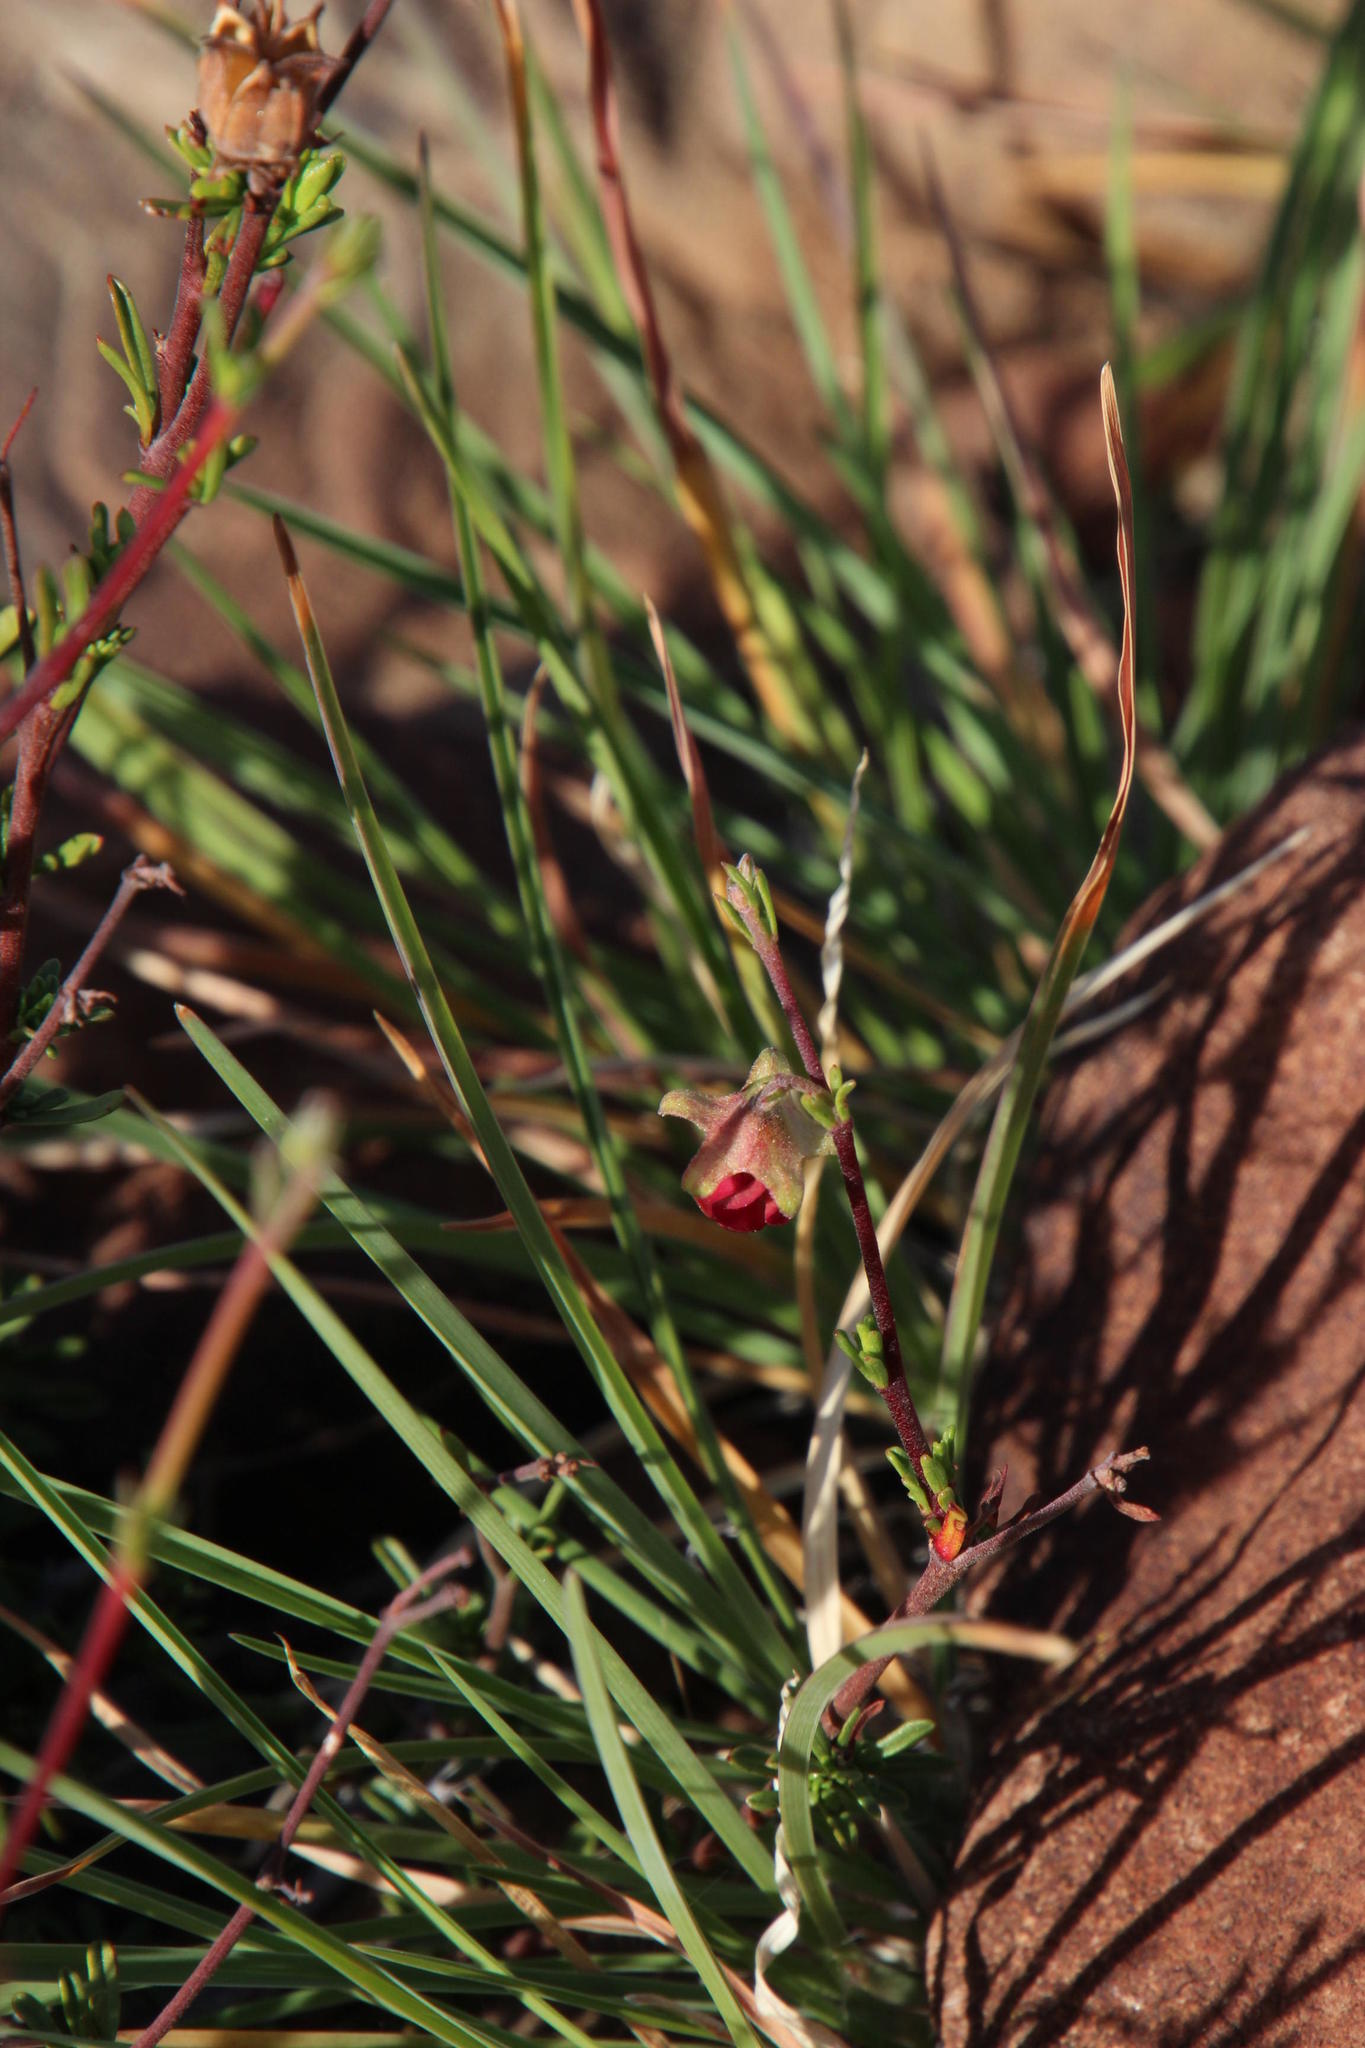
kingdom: Plantae
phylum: Tracheophyta
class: Magnoliopsida
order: Malvales
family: Malvaceae
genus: Hermannia
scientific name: Hermannia filifolia
